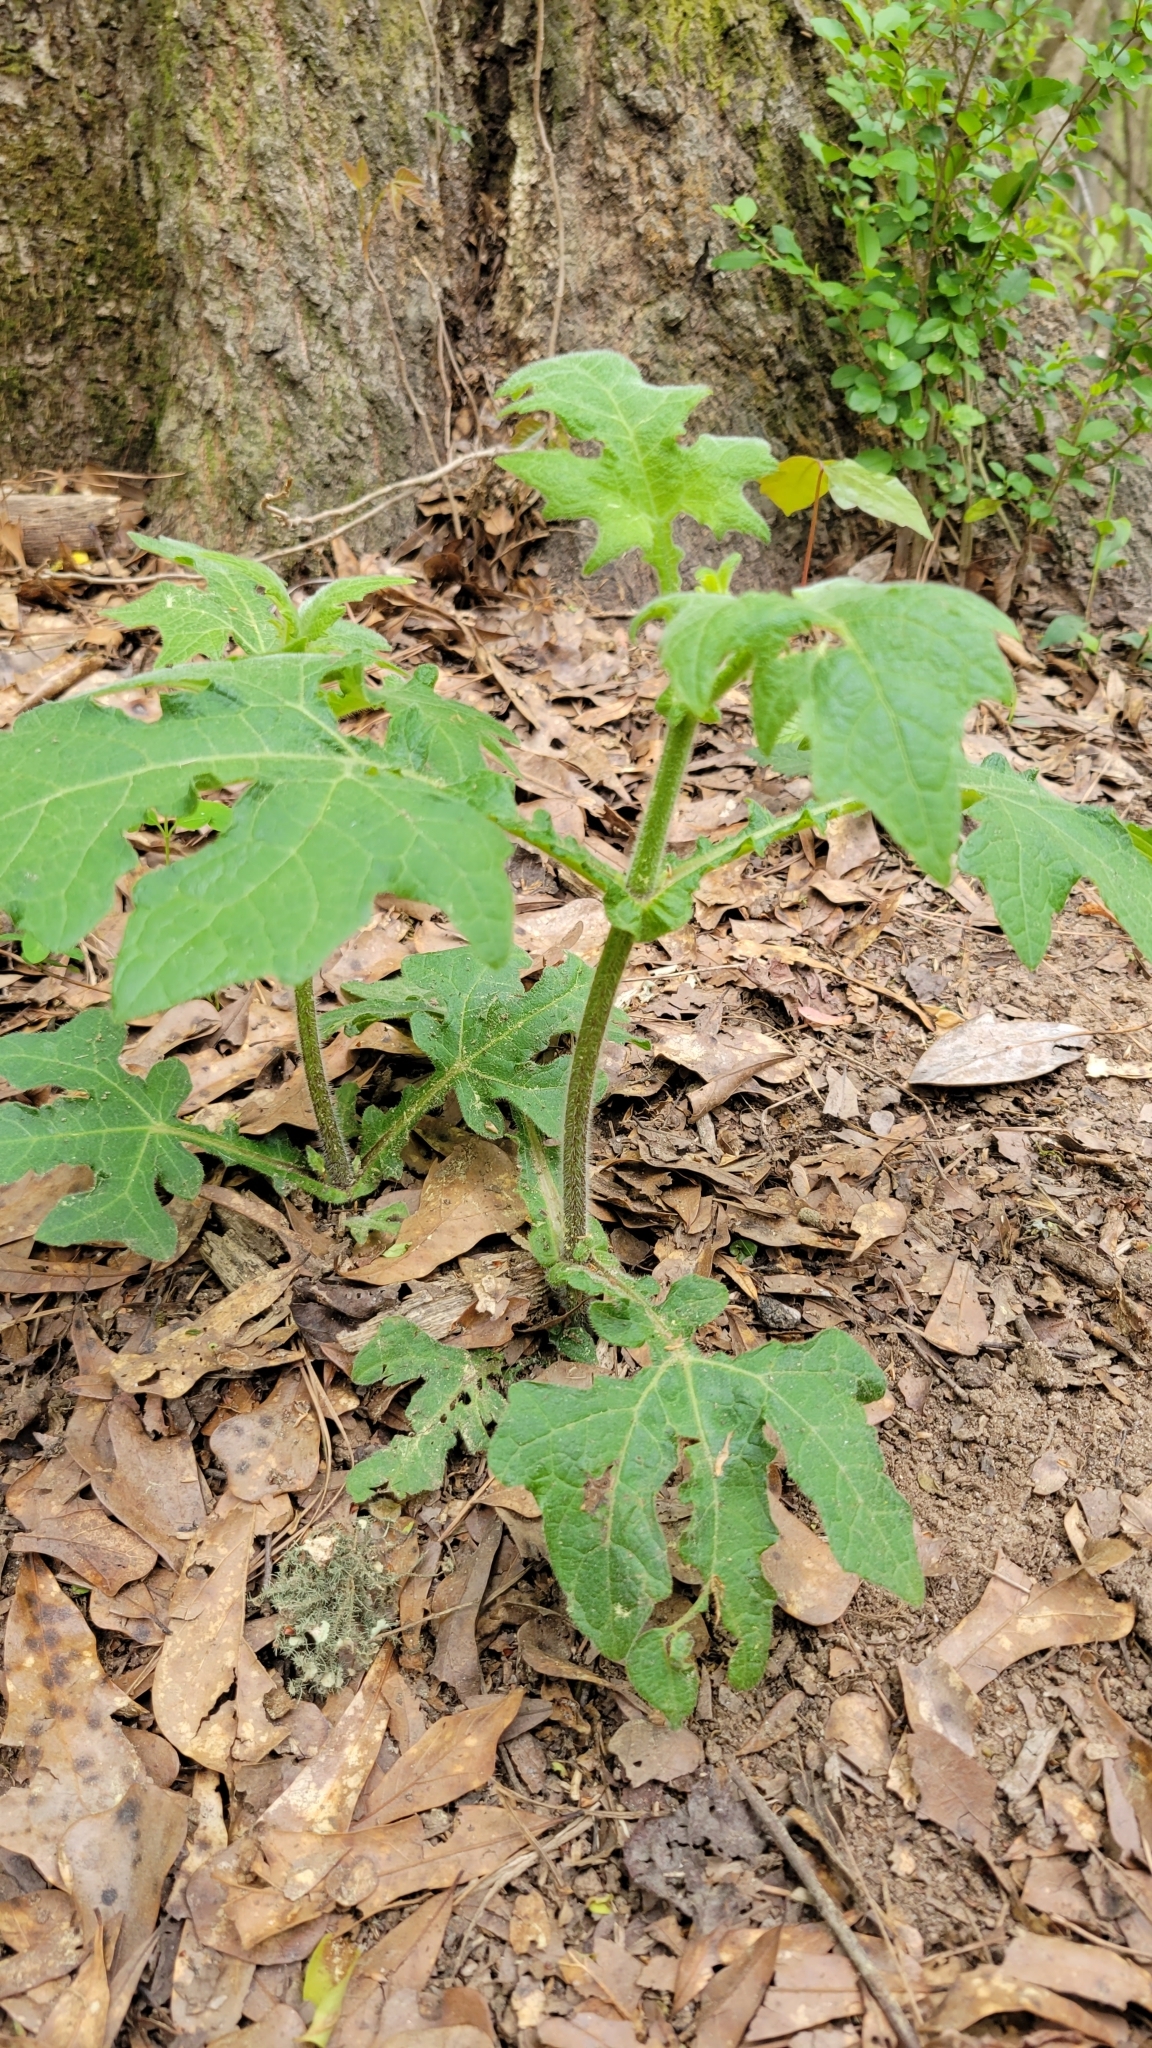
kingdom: Plantae
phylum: Tracheophyta
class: Magnoliopsida
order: Asterales
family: Asteraceae
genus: Smallanthus
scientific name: Smallanthus uvedalia
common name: Bear's-foot
